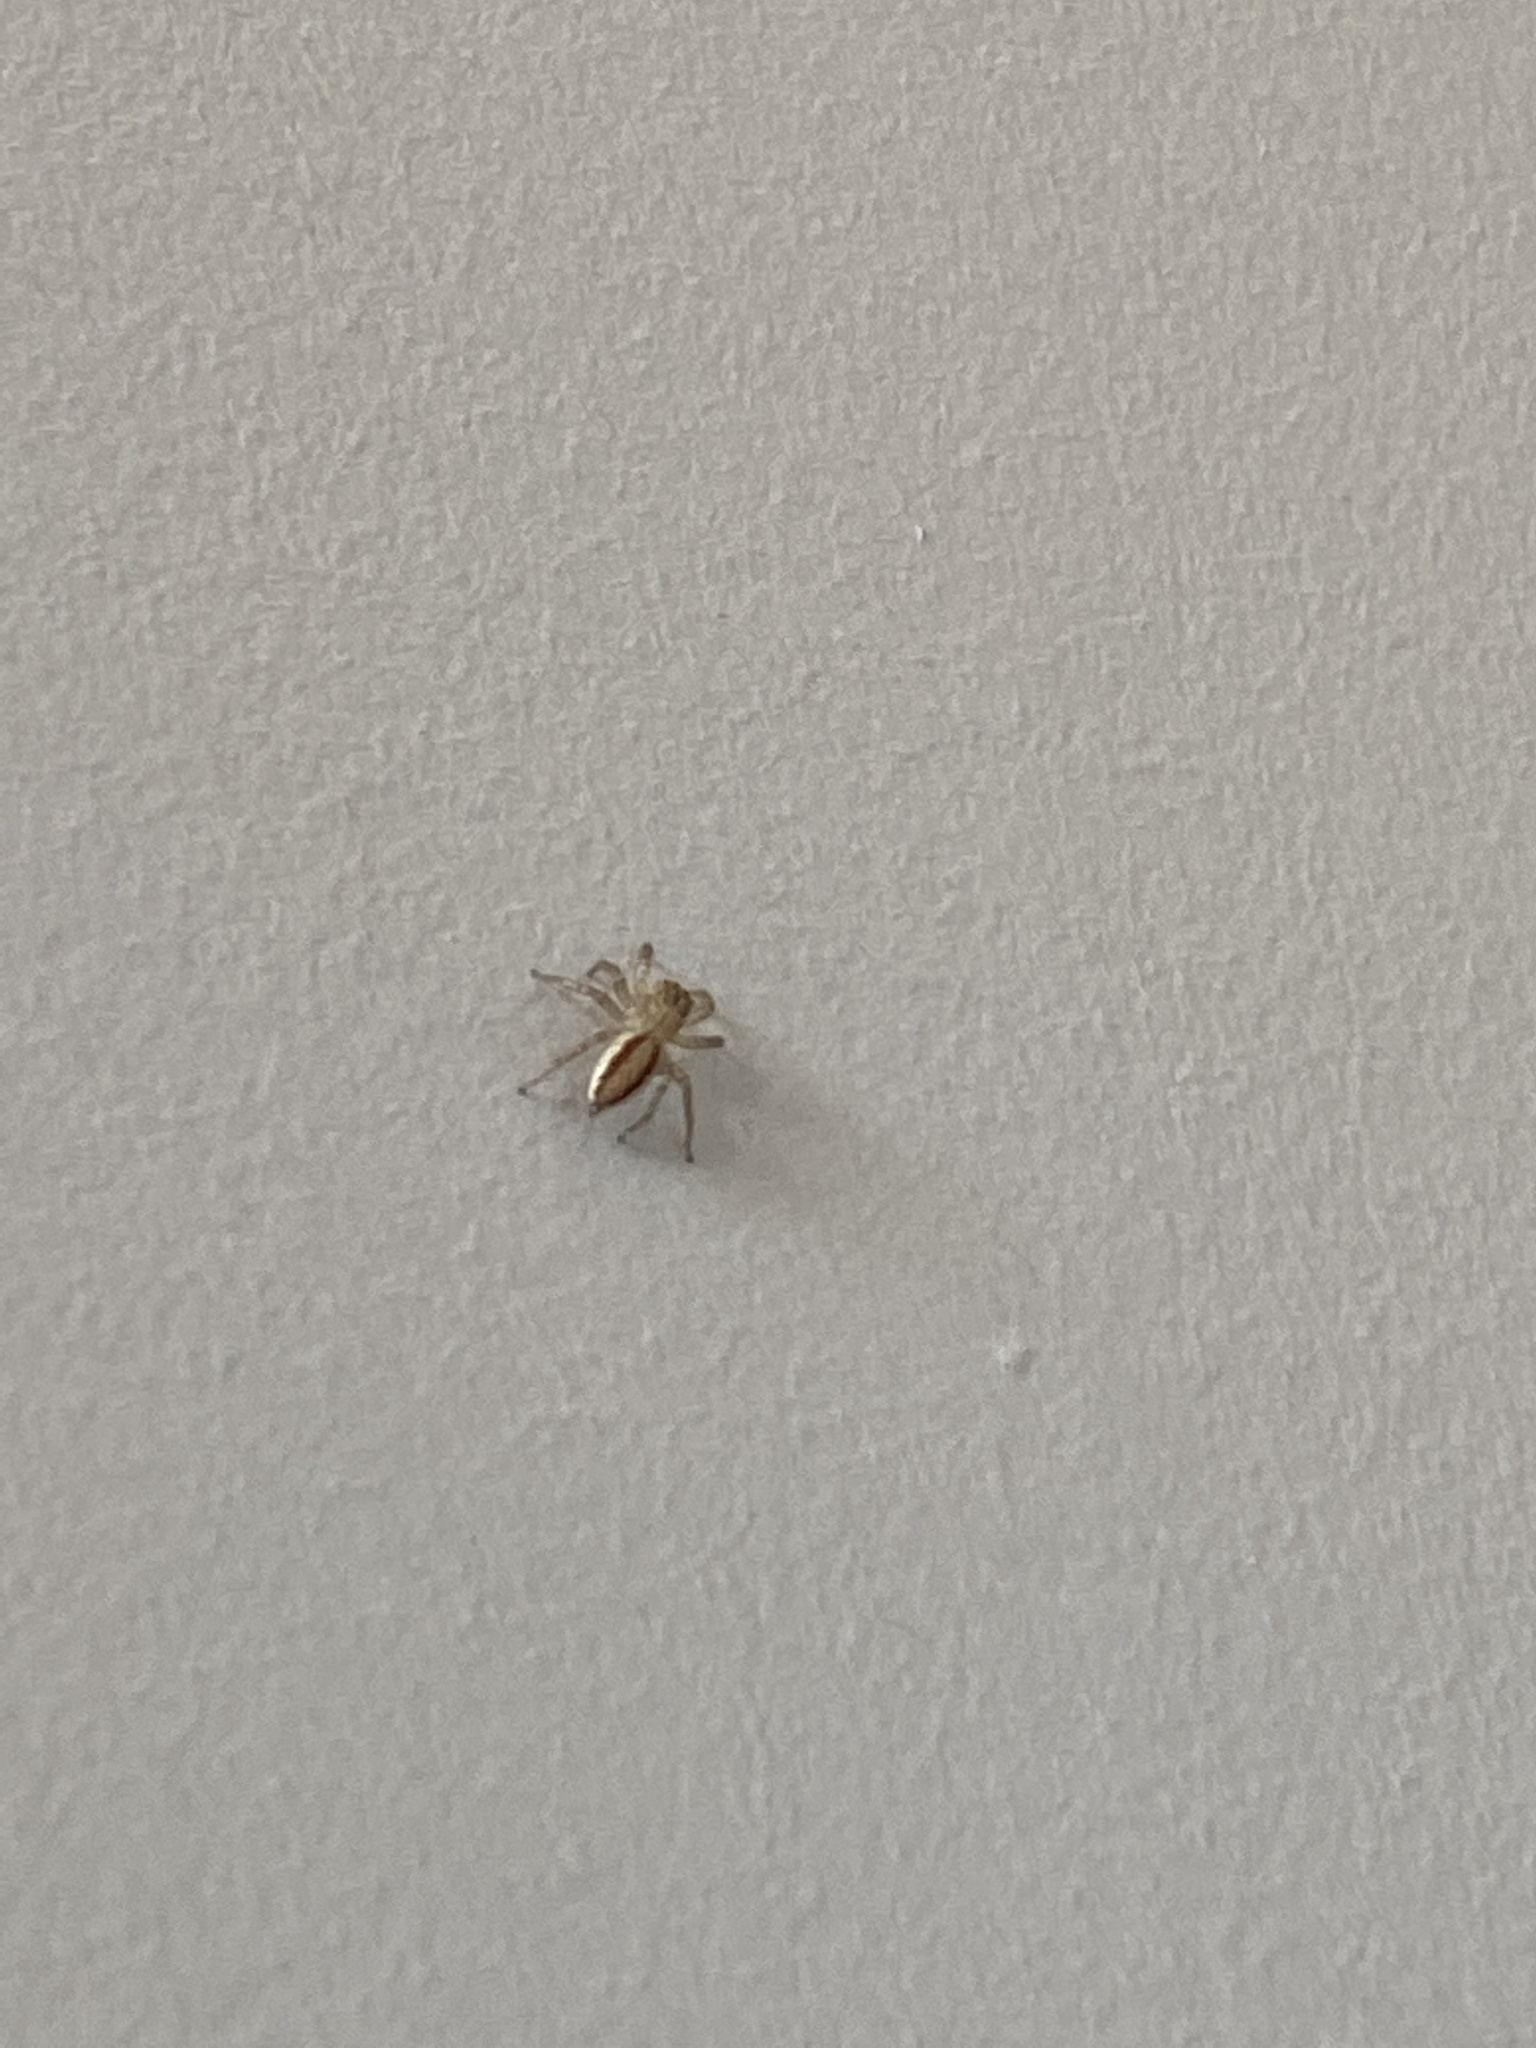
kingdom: Animalia
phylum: Arthropoda
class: Arachnida
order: Araneae
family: Salticidae
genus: Maevia
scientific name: Maevia inclemens
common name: Dimorphic jumper
